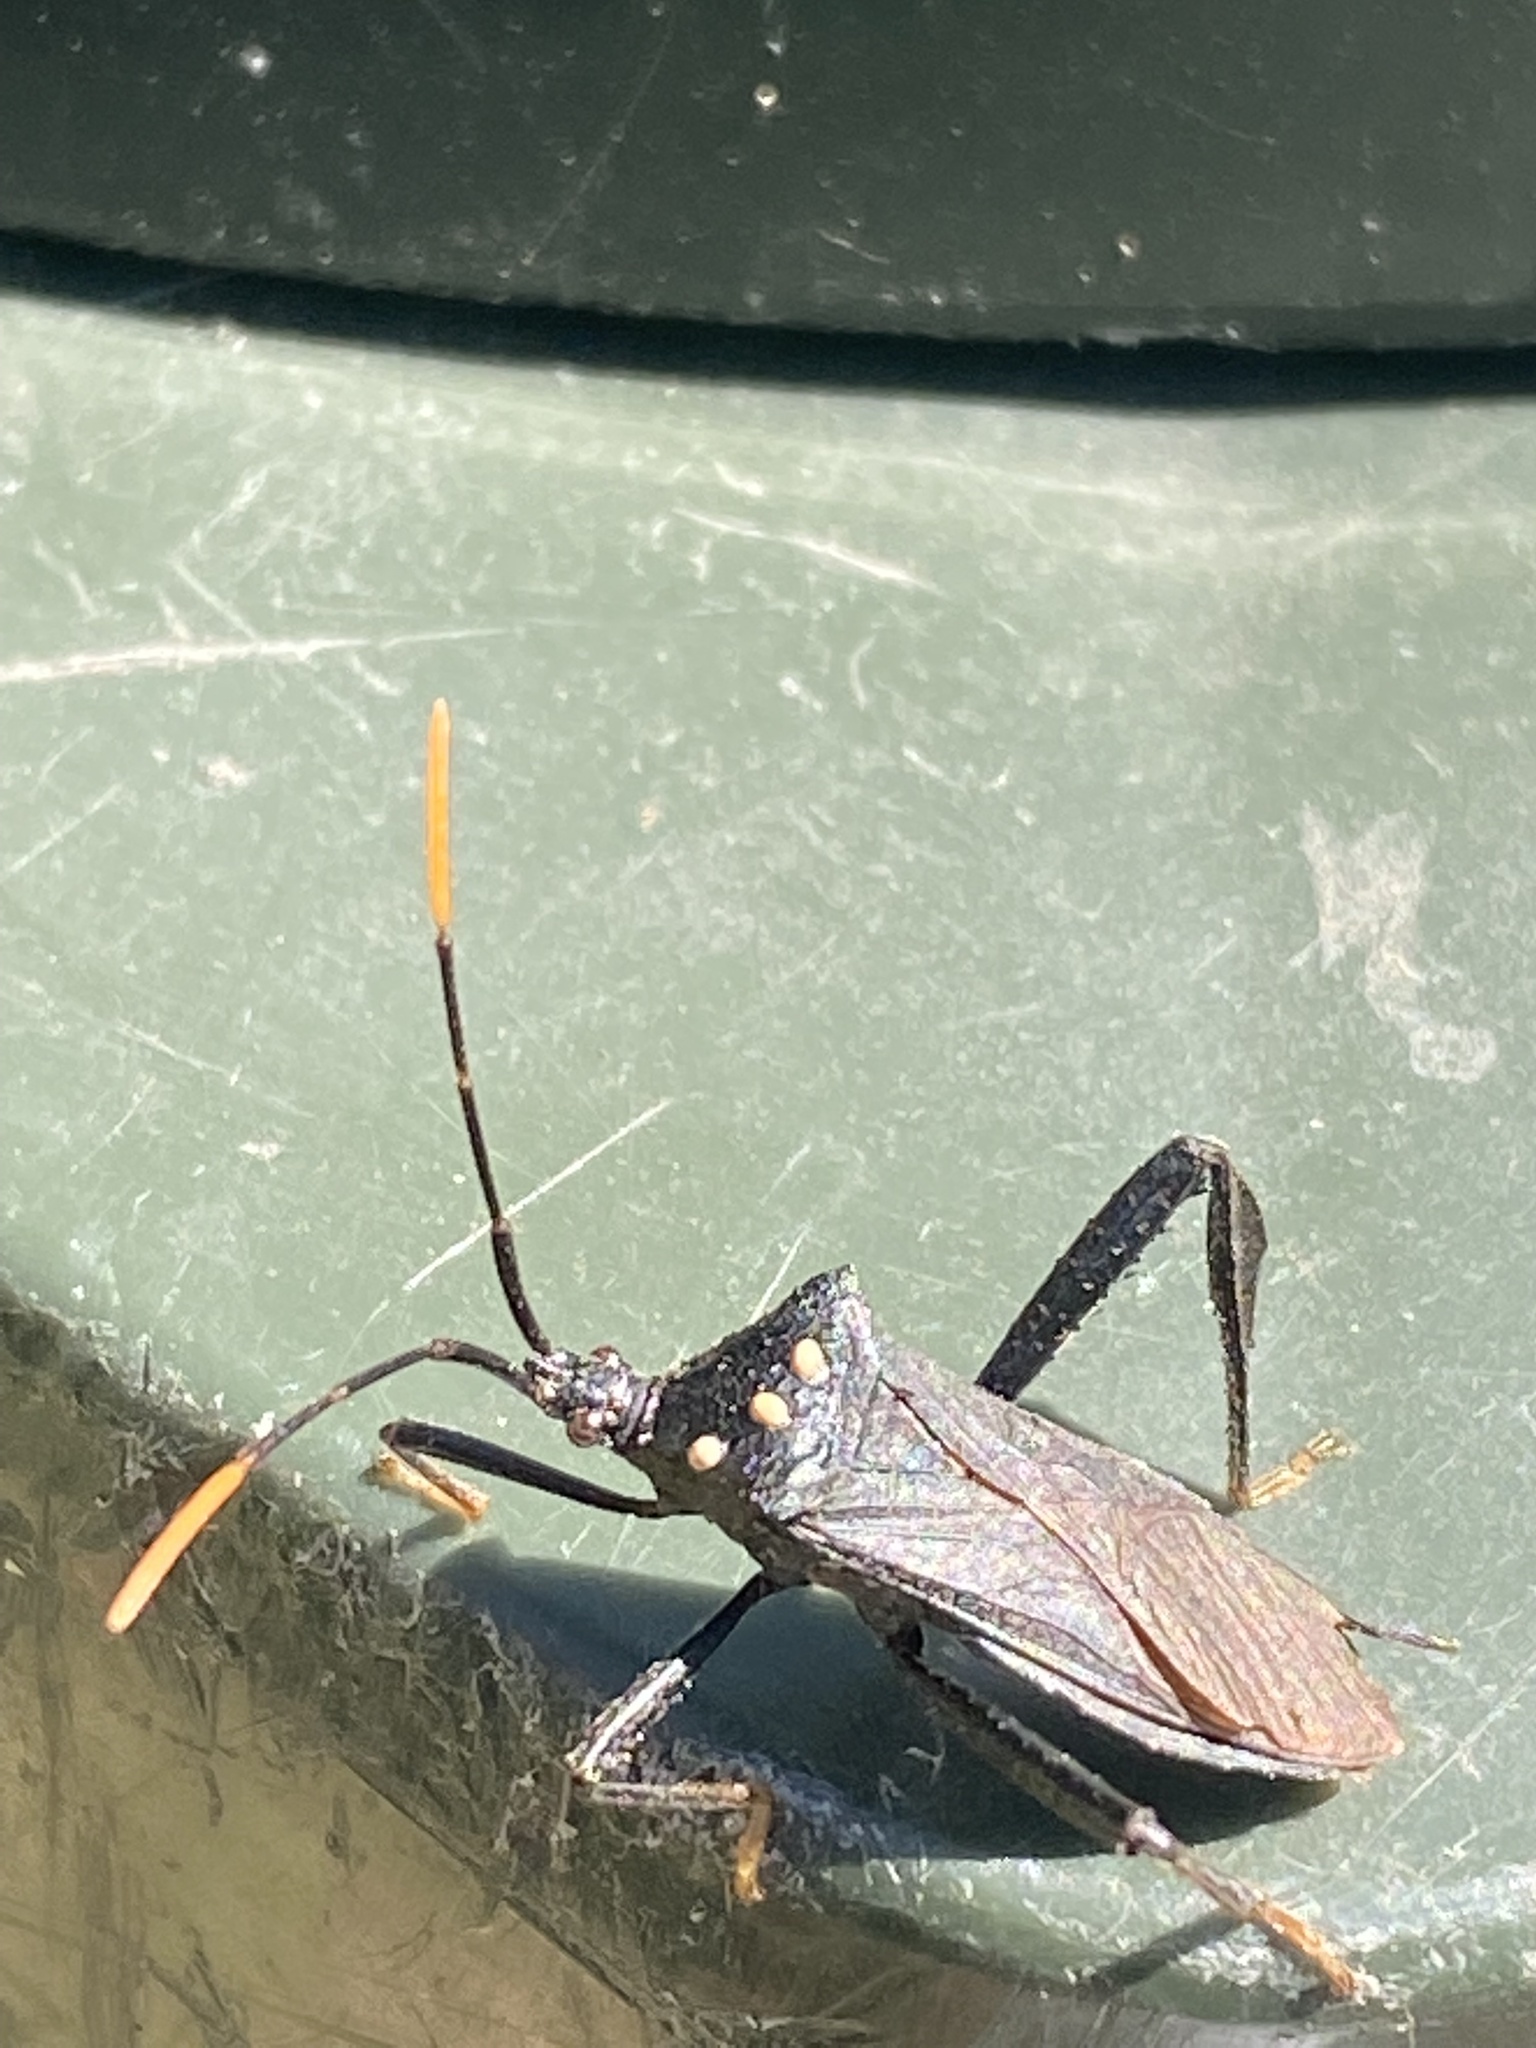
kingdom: Animalia
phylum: Arthropoda
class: Insecta
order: Hemiptera
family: Coreidae
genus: Acanthocephala
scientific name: Acanthocephala terminalis
